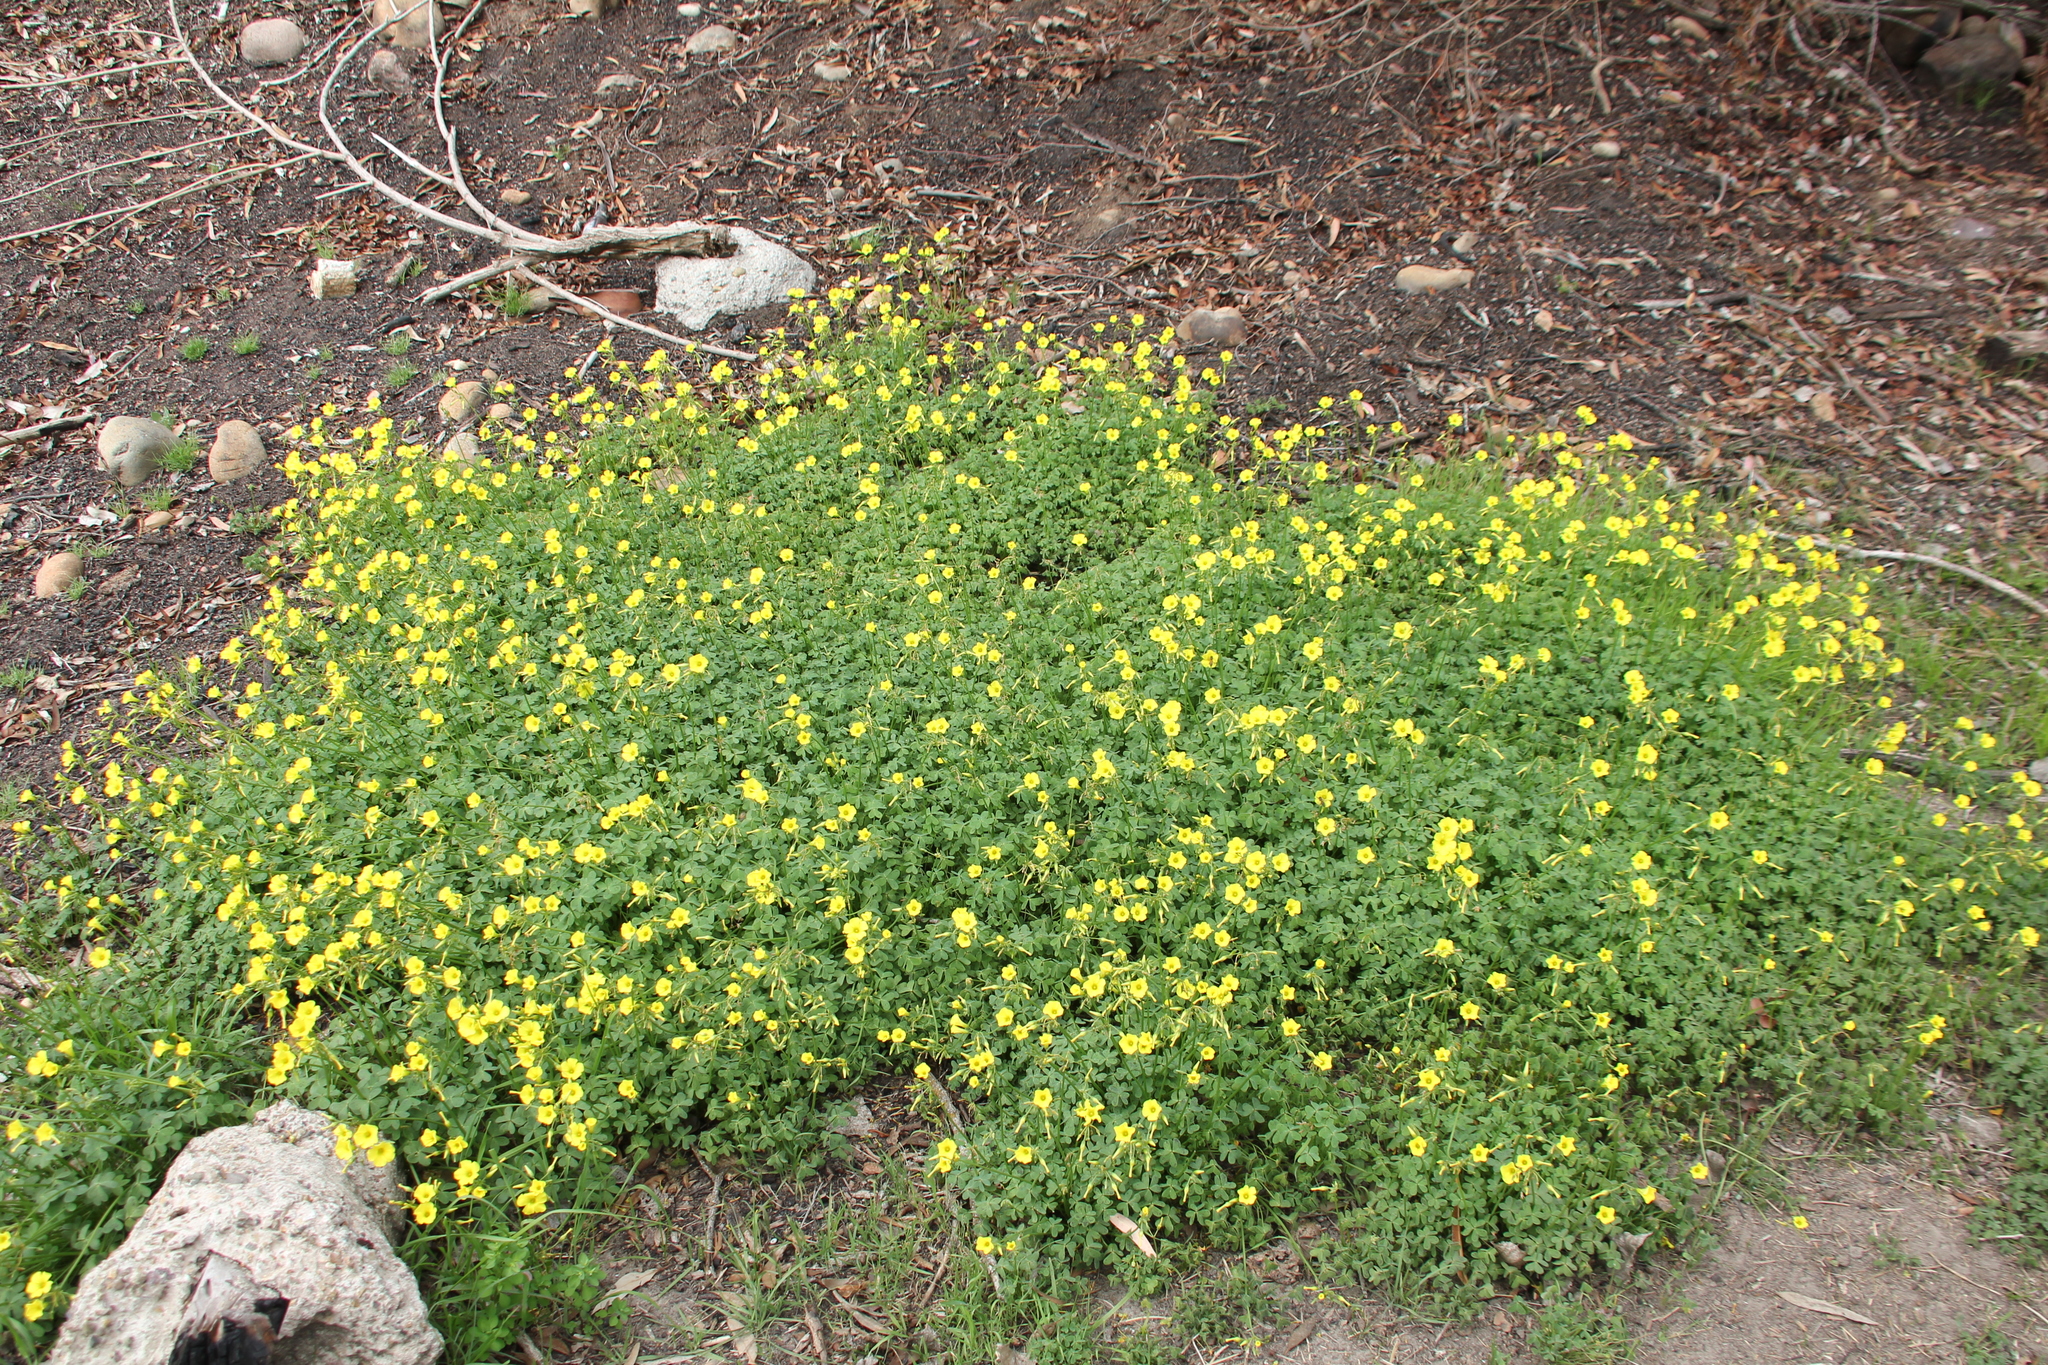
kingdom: Plantae
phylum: Tracheophyta
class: Magnoliopsida
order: Oxalidales
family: Oxalidaceae
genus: Oxalis
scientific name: Oxalis pes-caprae
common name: Bermuda-buttercup
